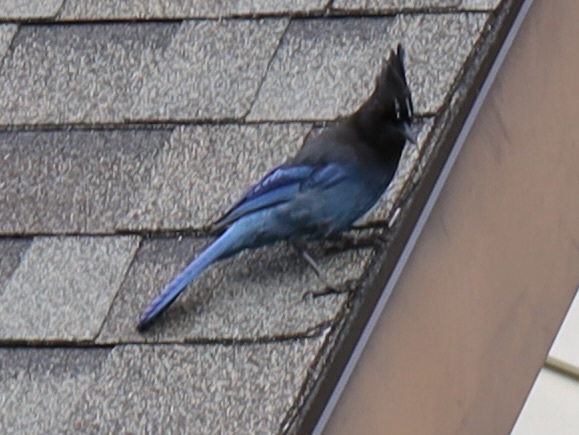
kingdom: Animalia
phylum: Chordata
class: Aves
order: Passeriformes
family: Corvidae
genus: Cyanocitta
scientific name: Cyanocitta stelleri
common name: Steller's jay
